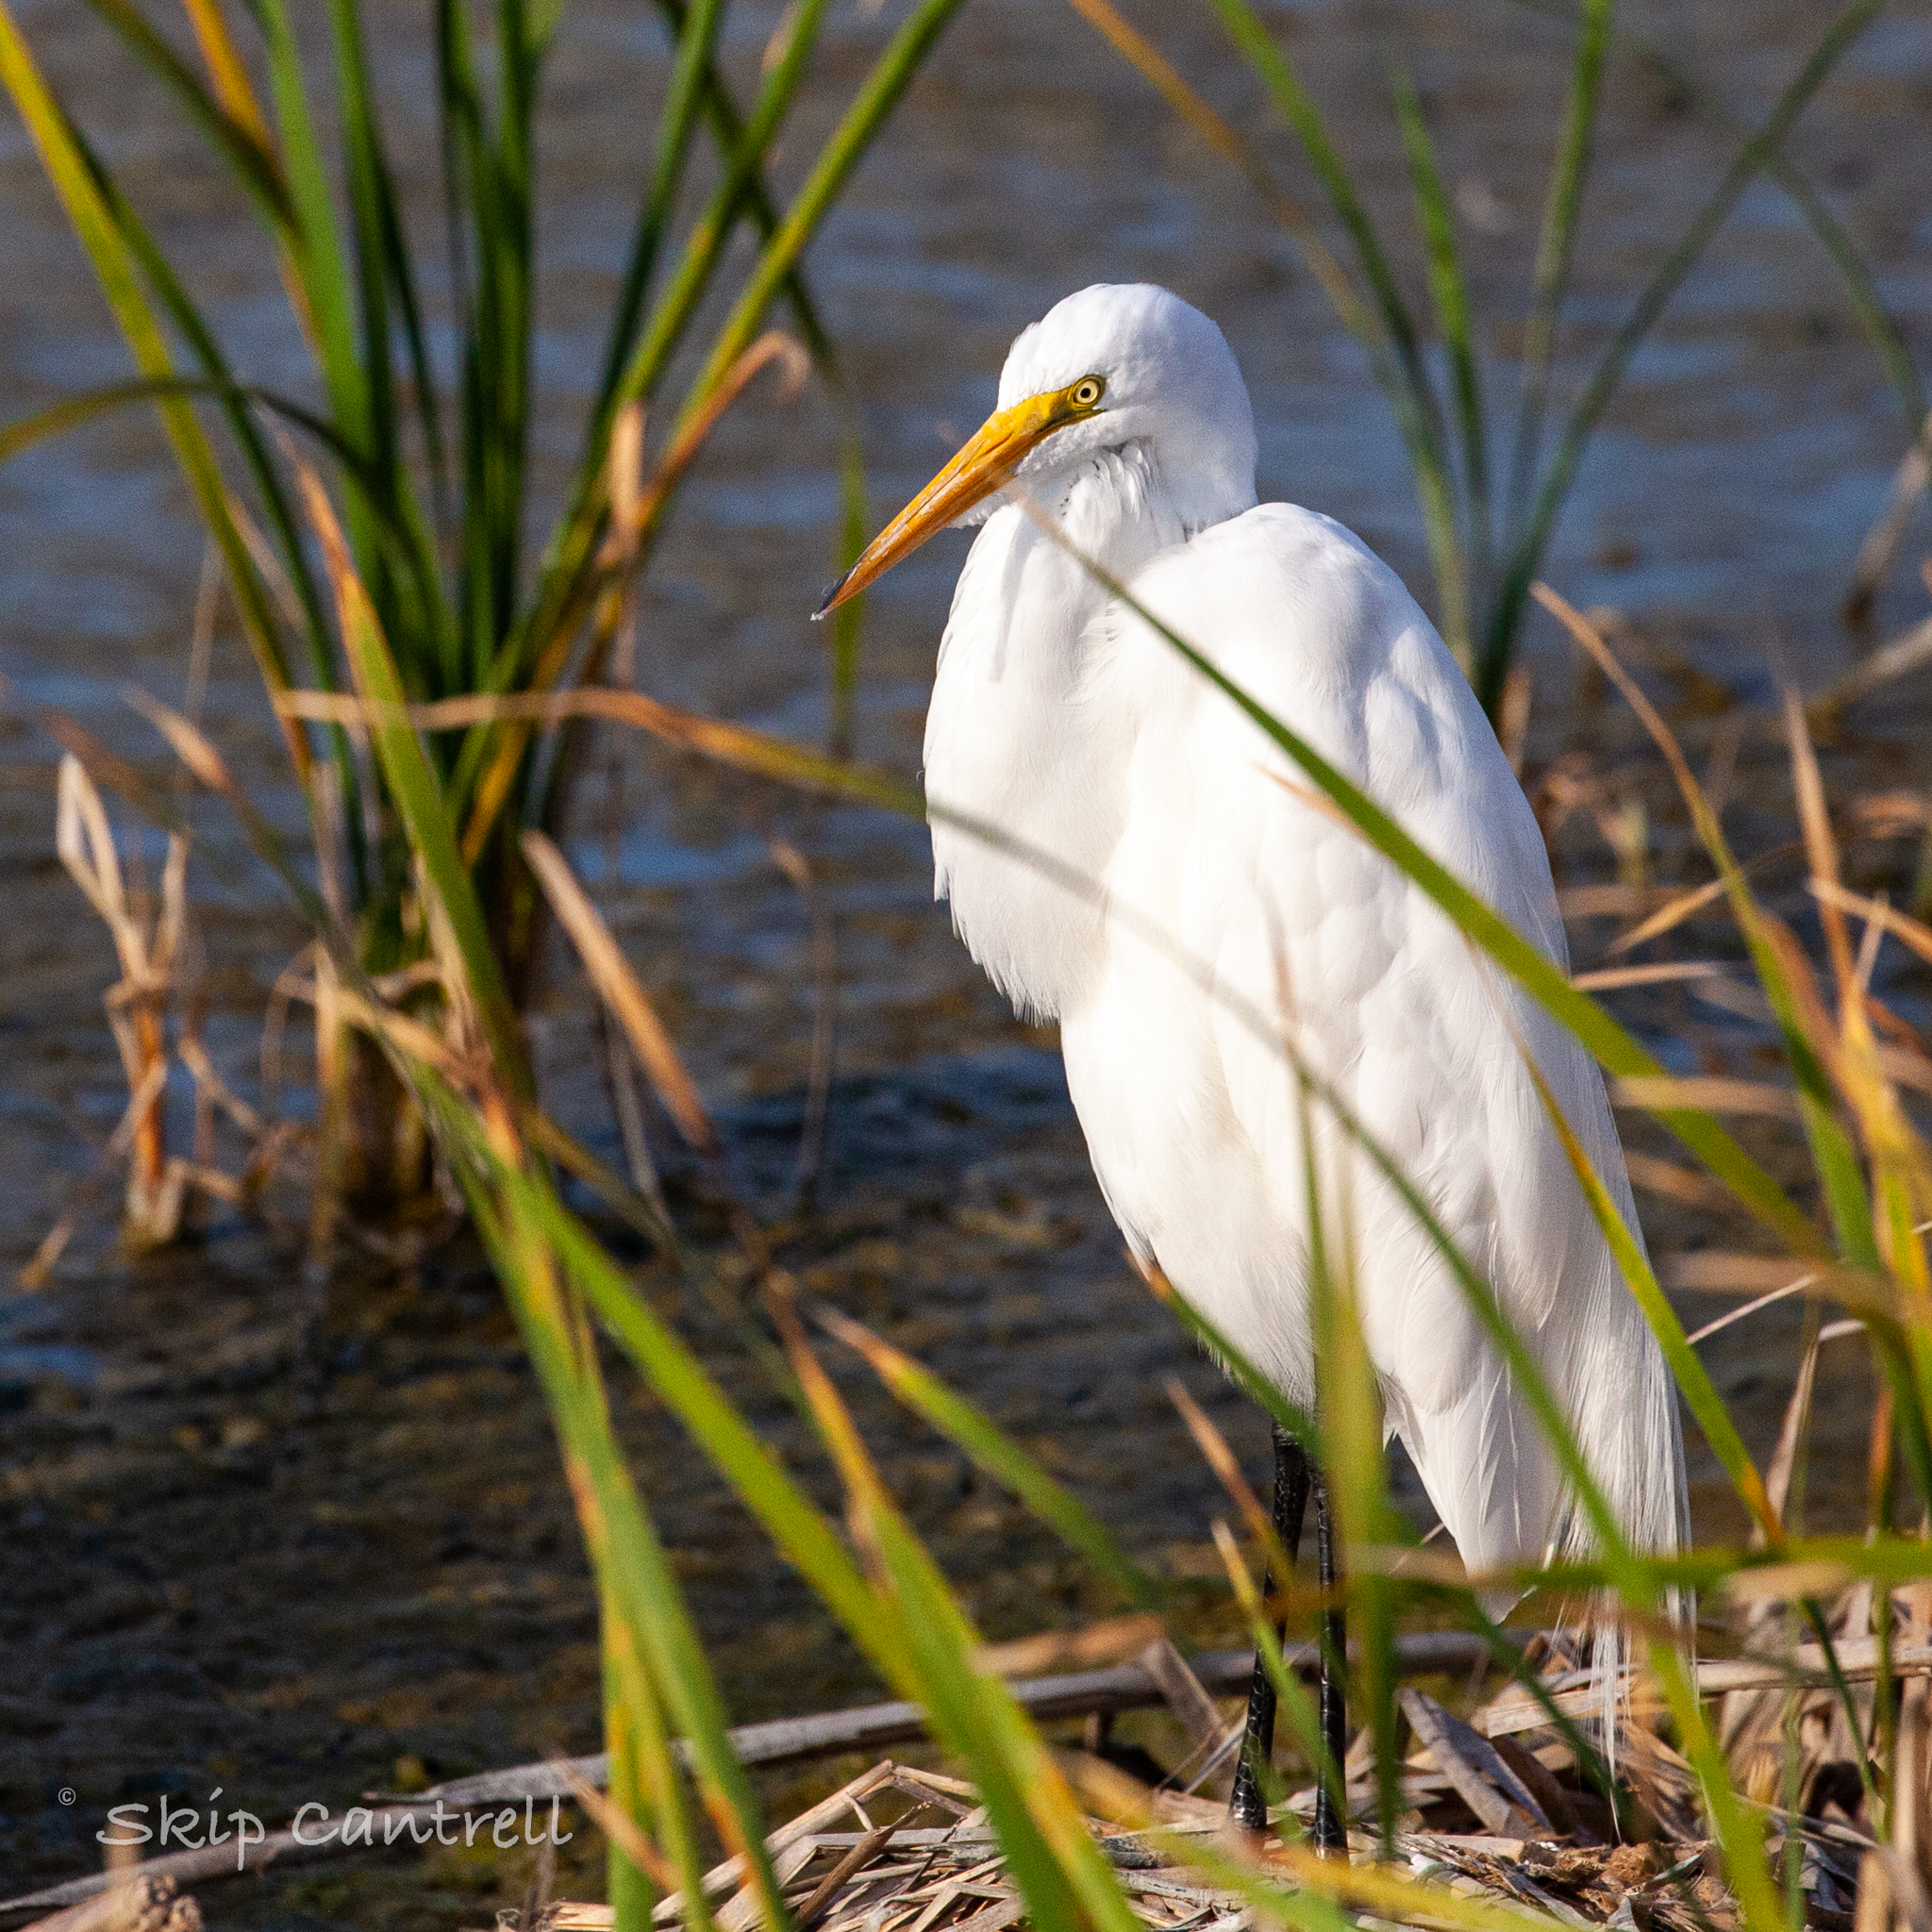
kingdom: Animalia
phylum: Chordata
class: Aves
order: Pelecaniformes
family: Ardeidae
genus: Ardea
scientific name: Ardea alba
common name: Great egret
